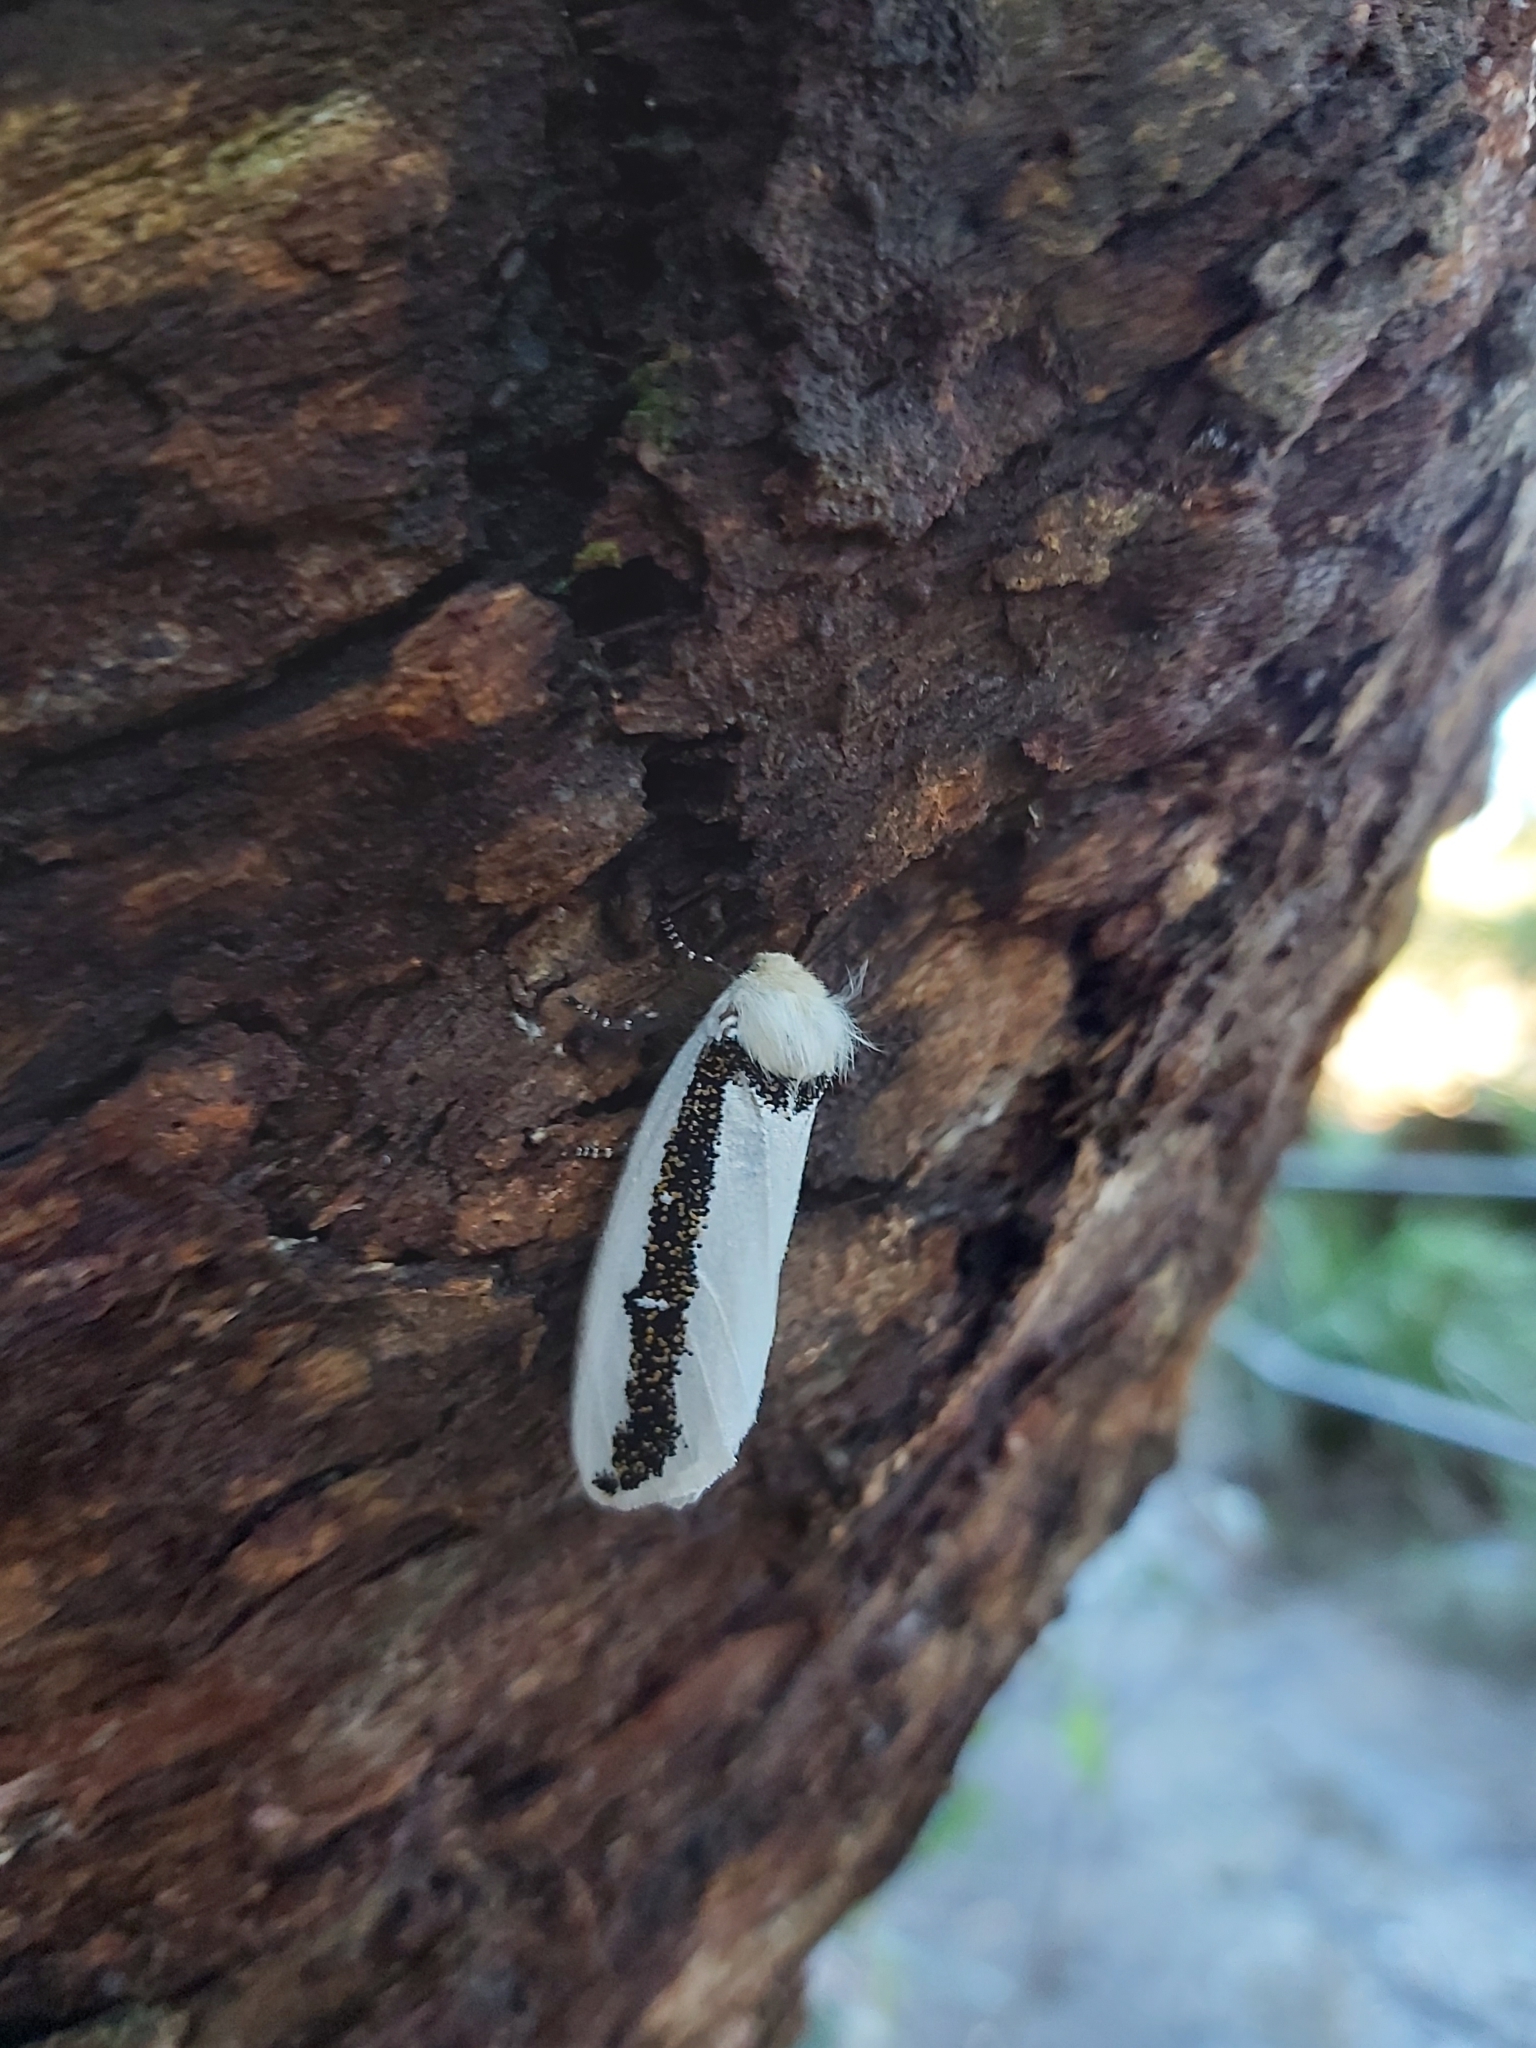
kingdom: Animalia
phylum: Arthropoda
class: Insecta
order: Lepidoptera
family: Oenosandridae
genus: Oenosandra
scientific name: Oenosandra boisduvalii
